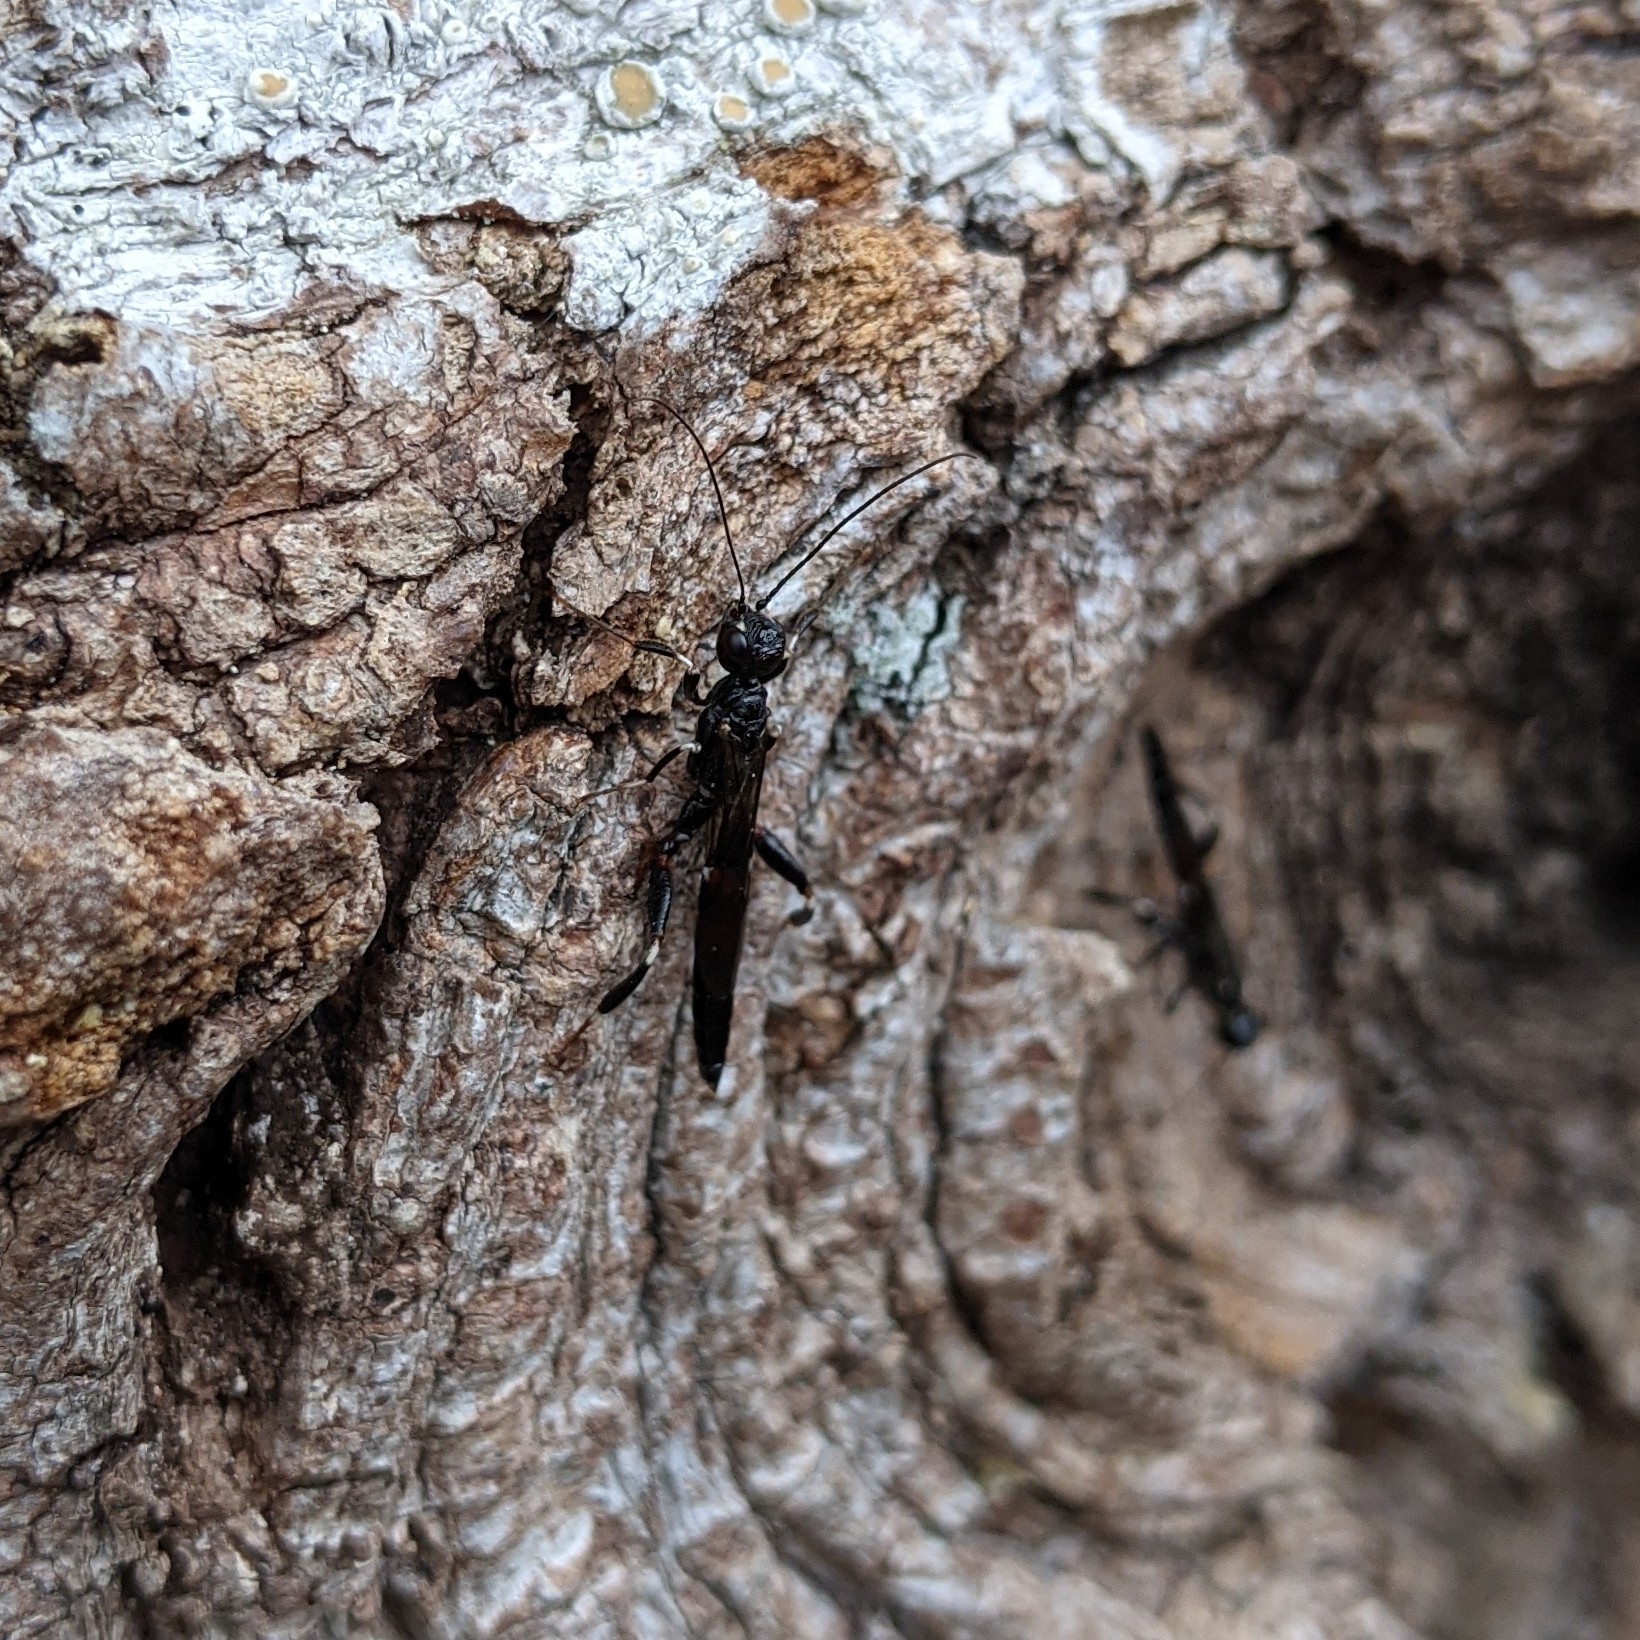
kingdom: Animalia
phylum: Arthropoda
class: Insecta
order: Hymenoptera
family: Stephanidae
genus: Schlettererius
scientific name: Schlettererius cinctipes
